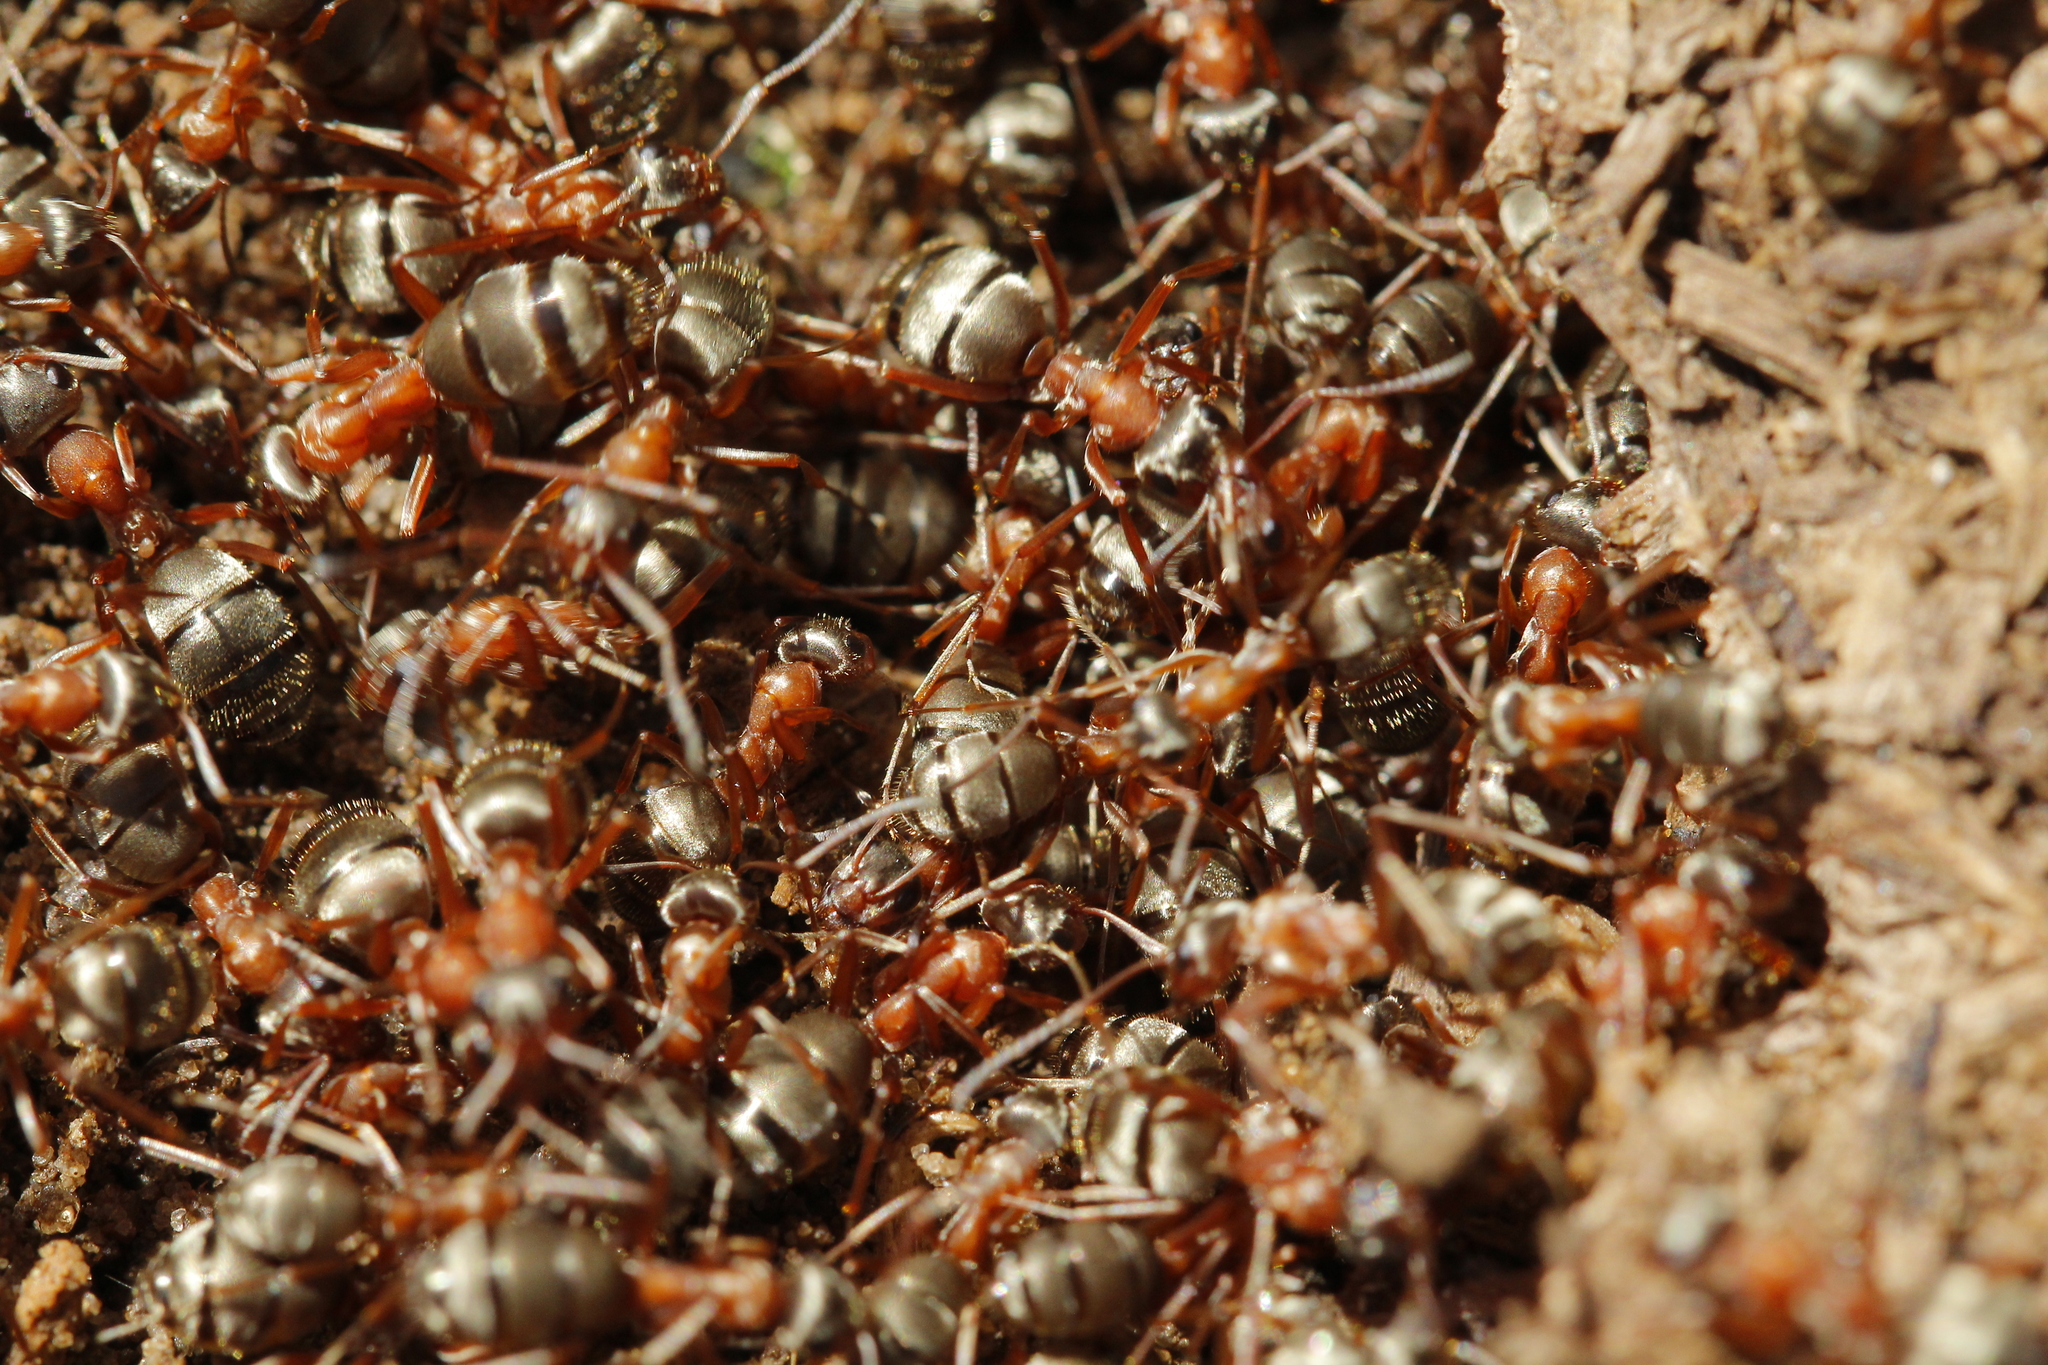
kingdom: Animalia
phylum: Arthropoda
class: Insecta
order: Hymenoptera
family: Formicidae
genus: Formica
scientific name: Formica cinerea
